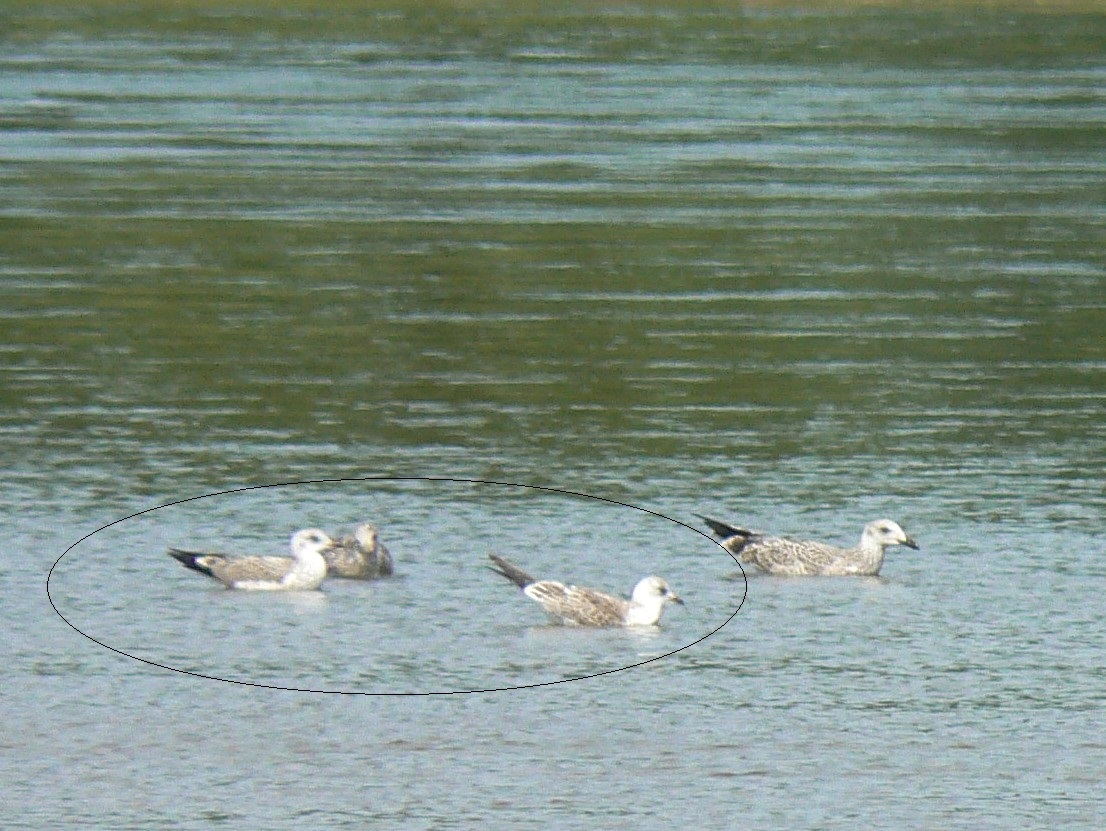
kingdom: Animalia
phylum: Chordata
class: Aves
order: Charadriiformes
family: Laridae
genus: Larus
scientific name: Larus canus
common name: Mew gull
